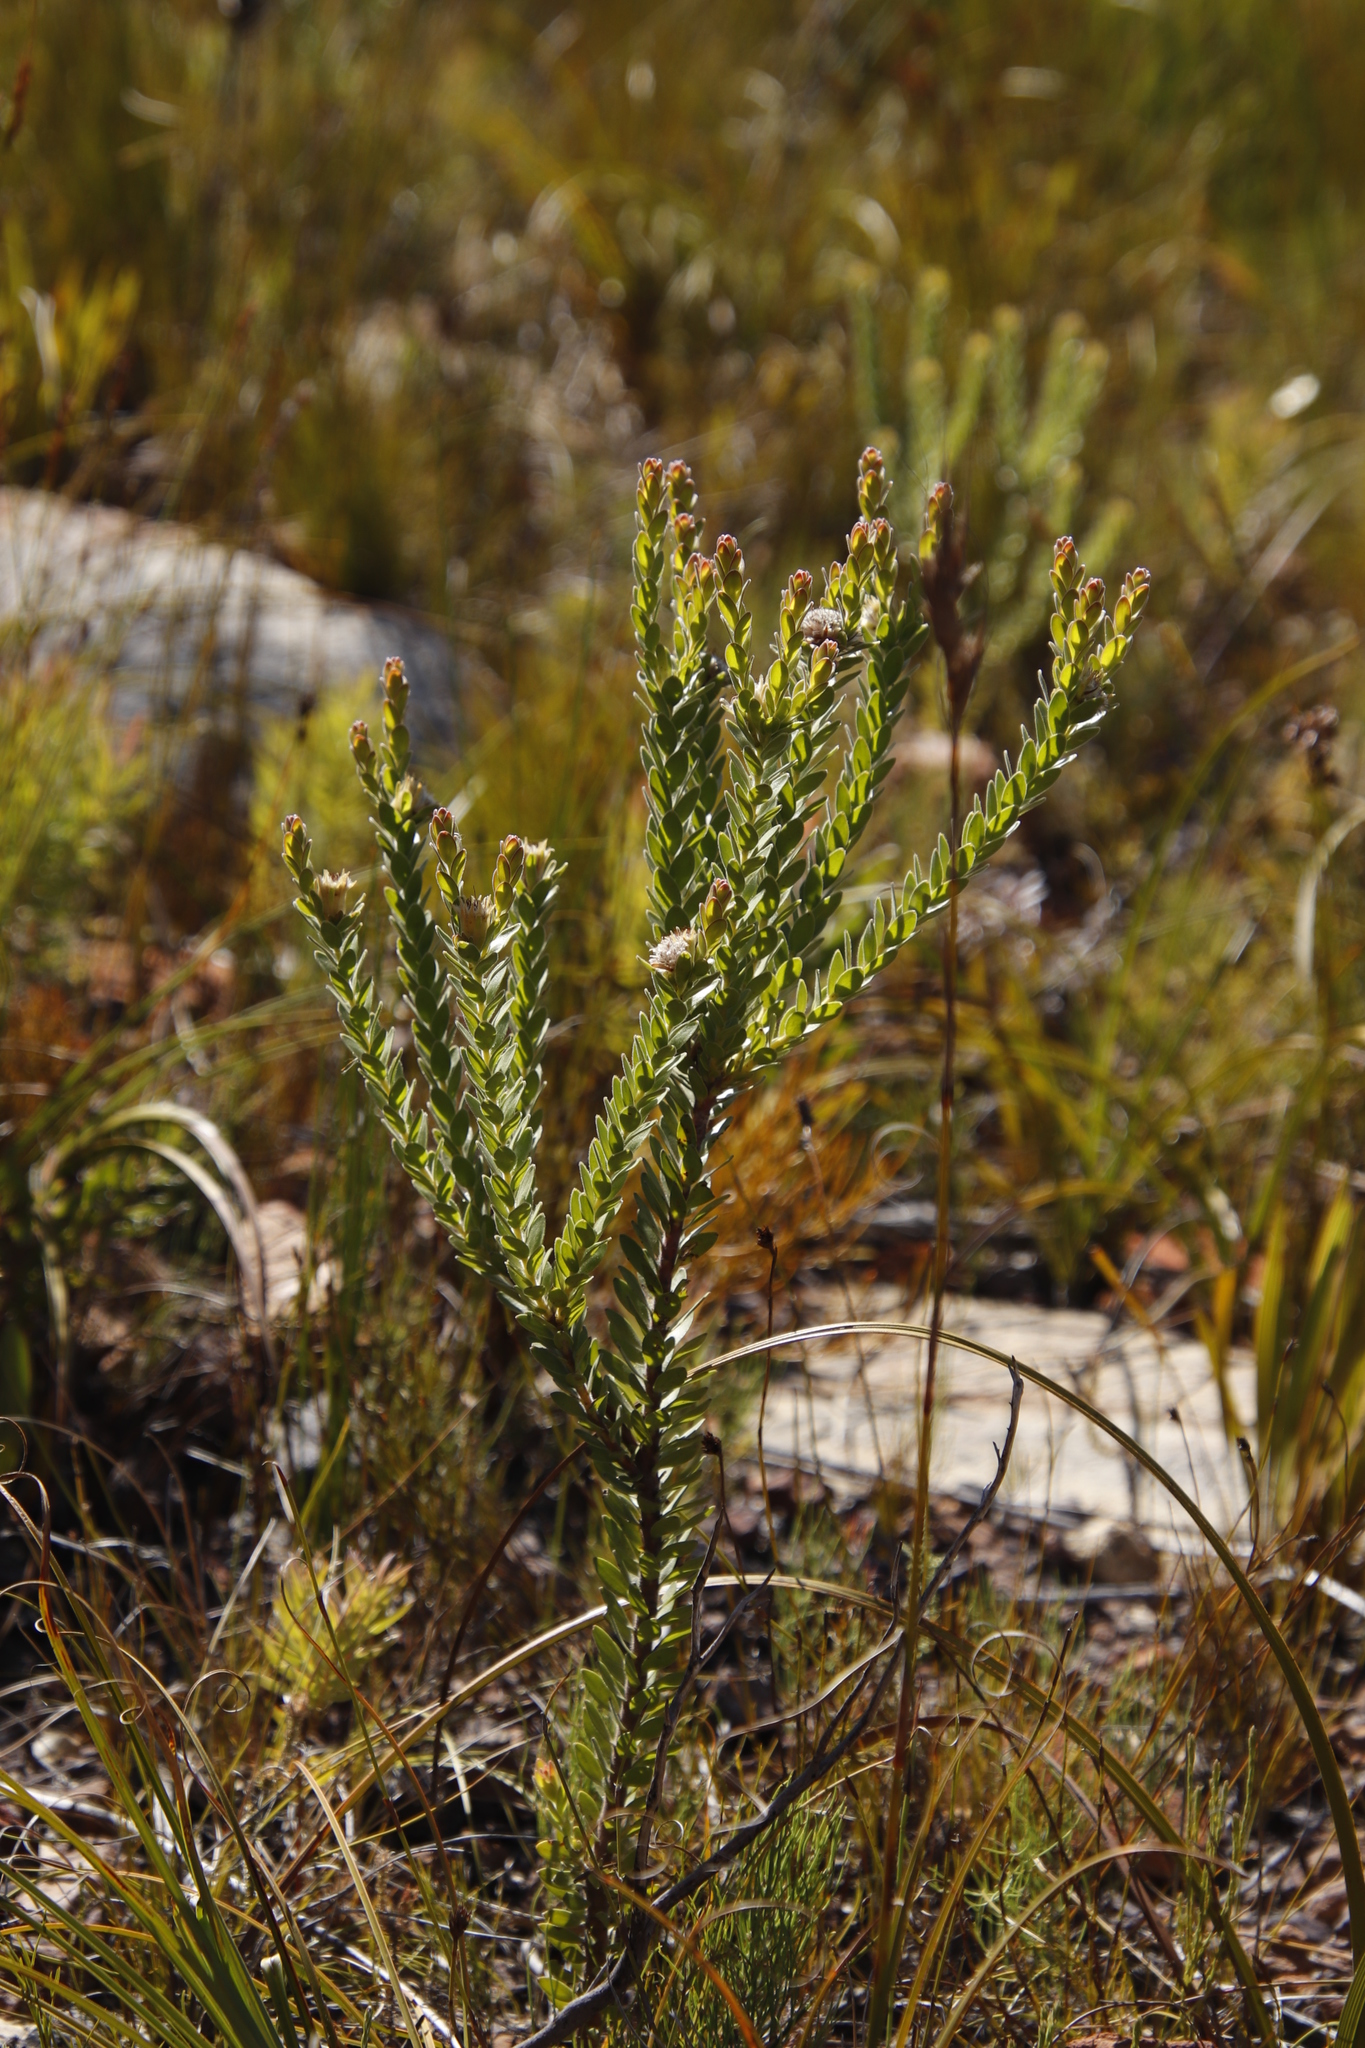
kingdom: Plantae
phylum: Tracheophyta
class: Magnoliopsida
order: Proteales
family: Proteaceae
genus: Diastella
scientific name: Diastella thymelaeoides
